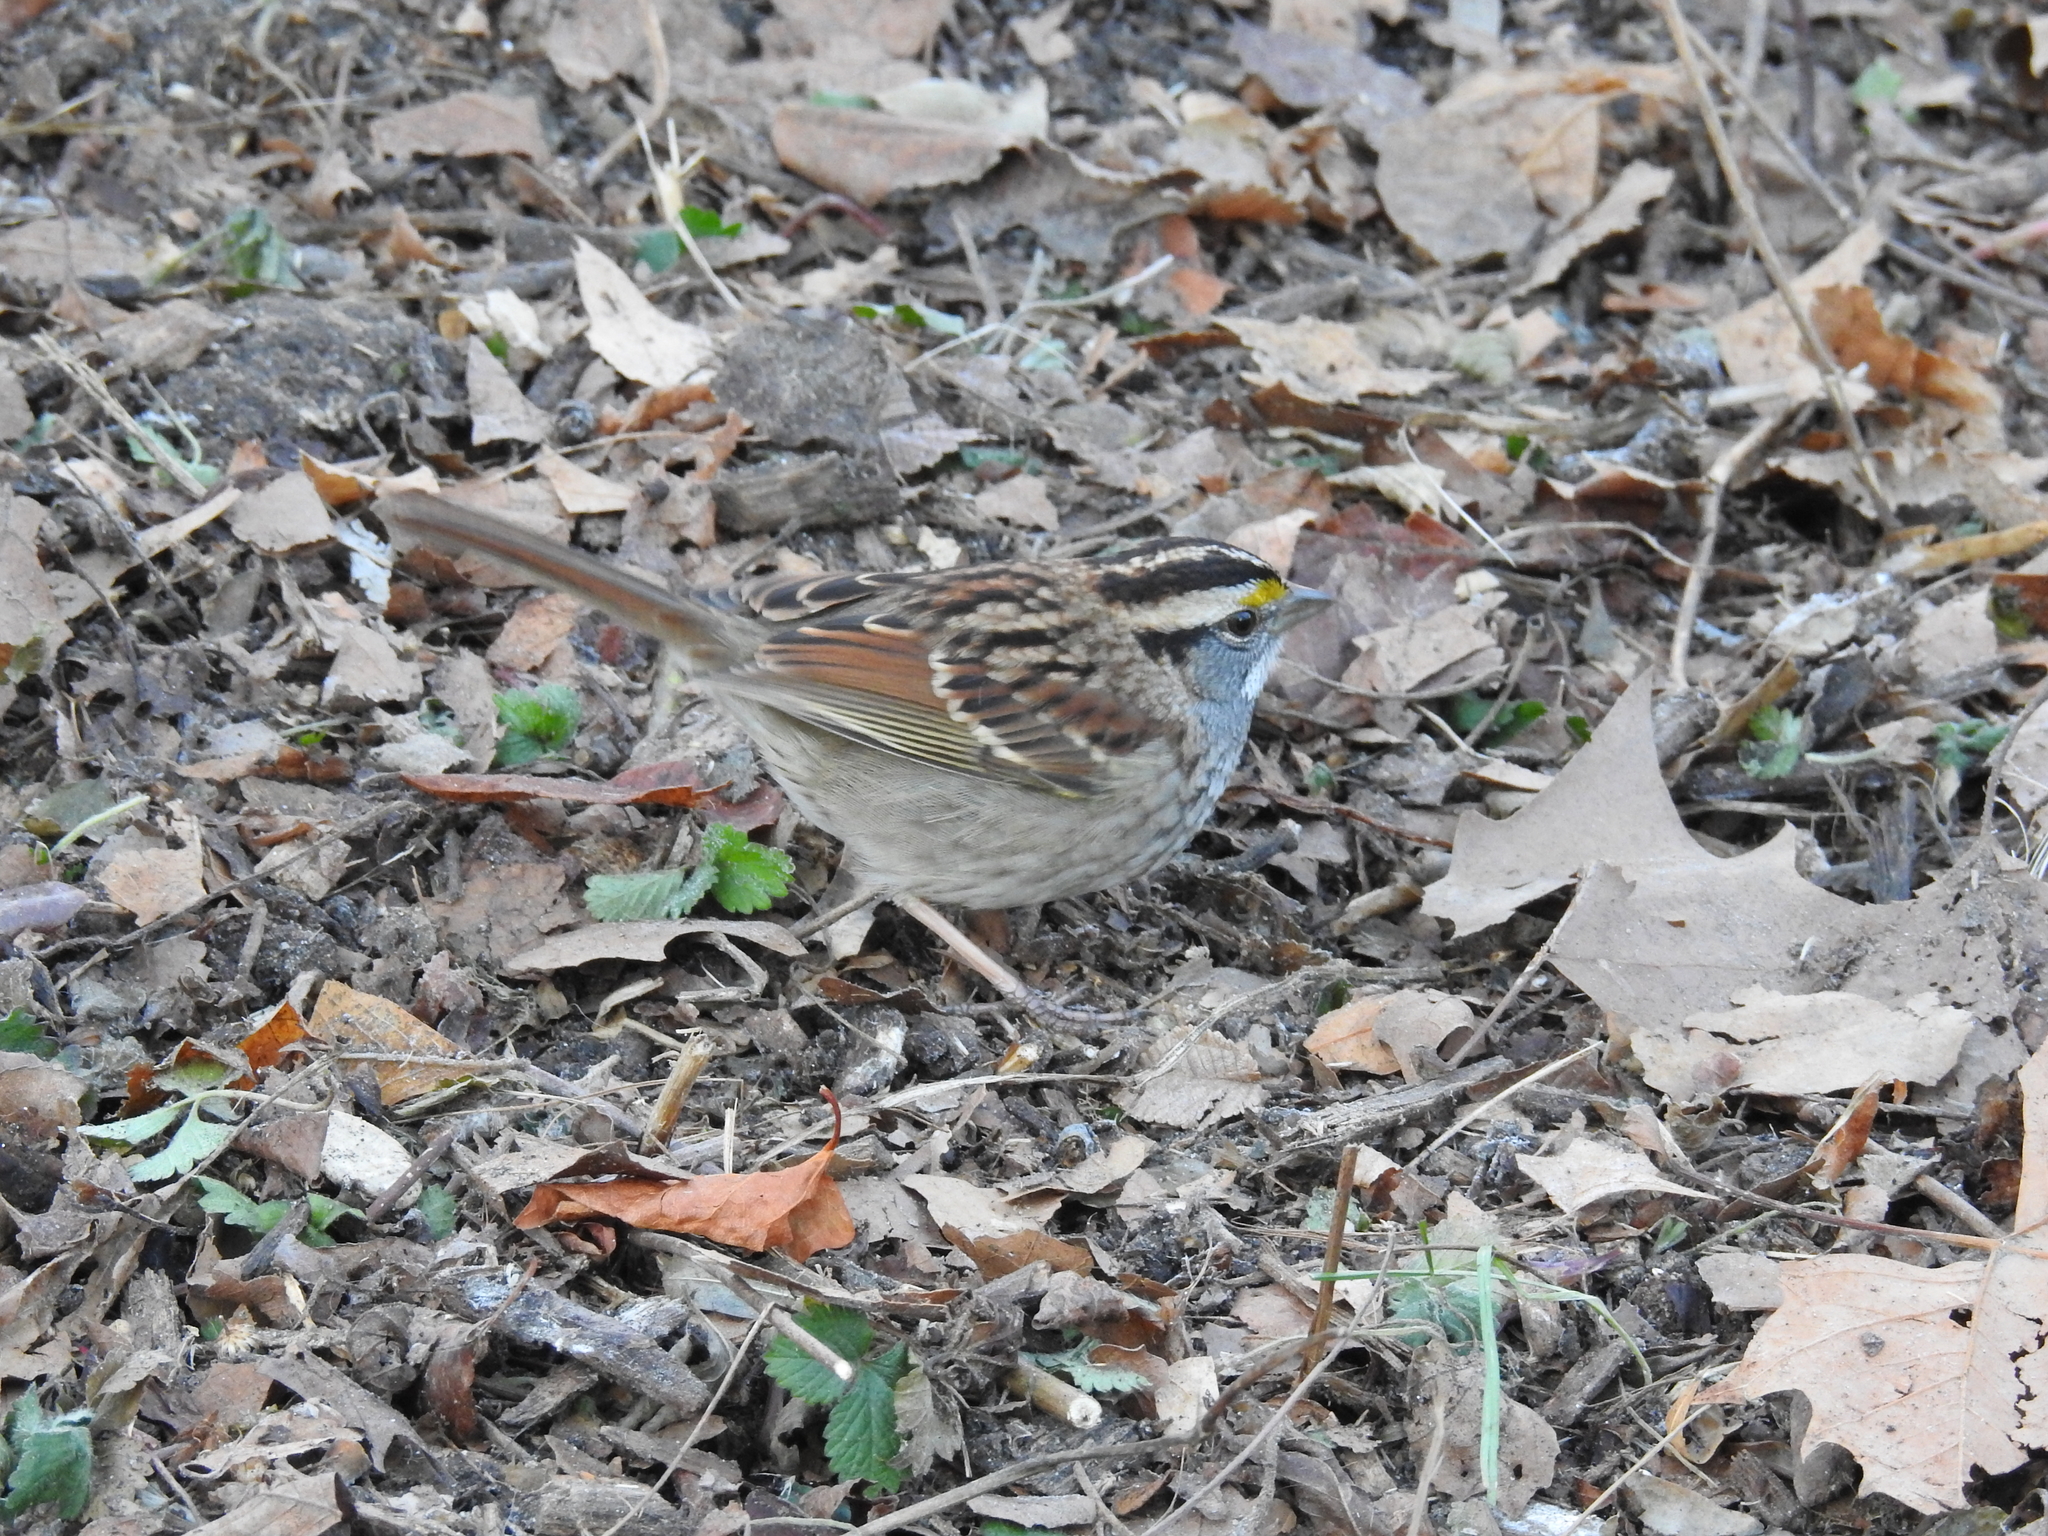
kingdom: Animalia
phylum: Chordata
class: Aves
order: Passeriformes
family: Passerellidae
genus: Zonotrichia
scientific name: Zonotrichia albicollis
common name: White-throated sparrow
